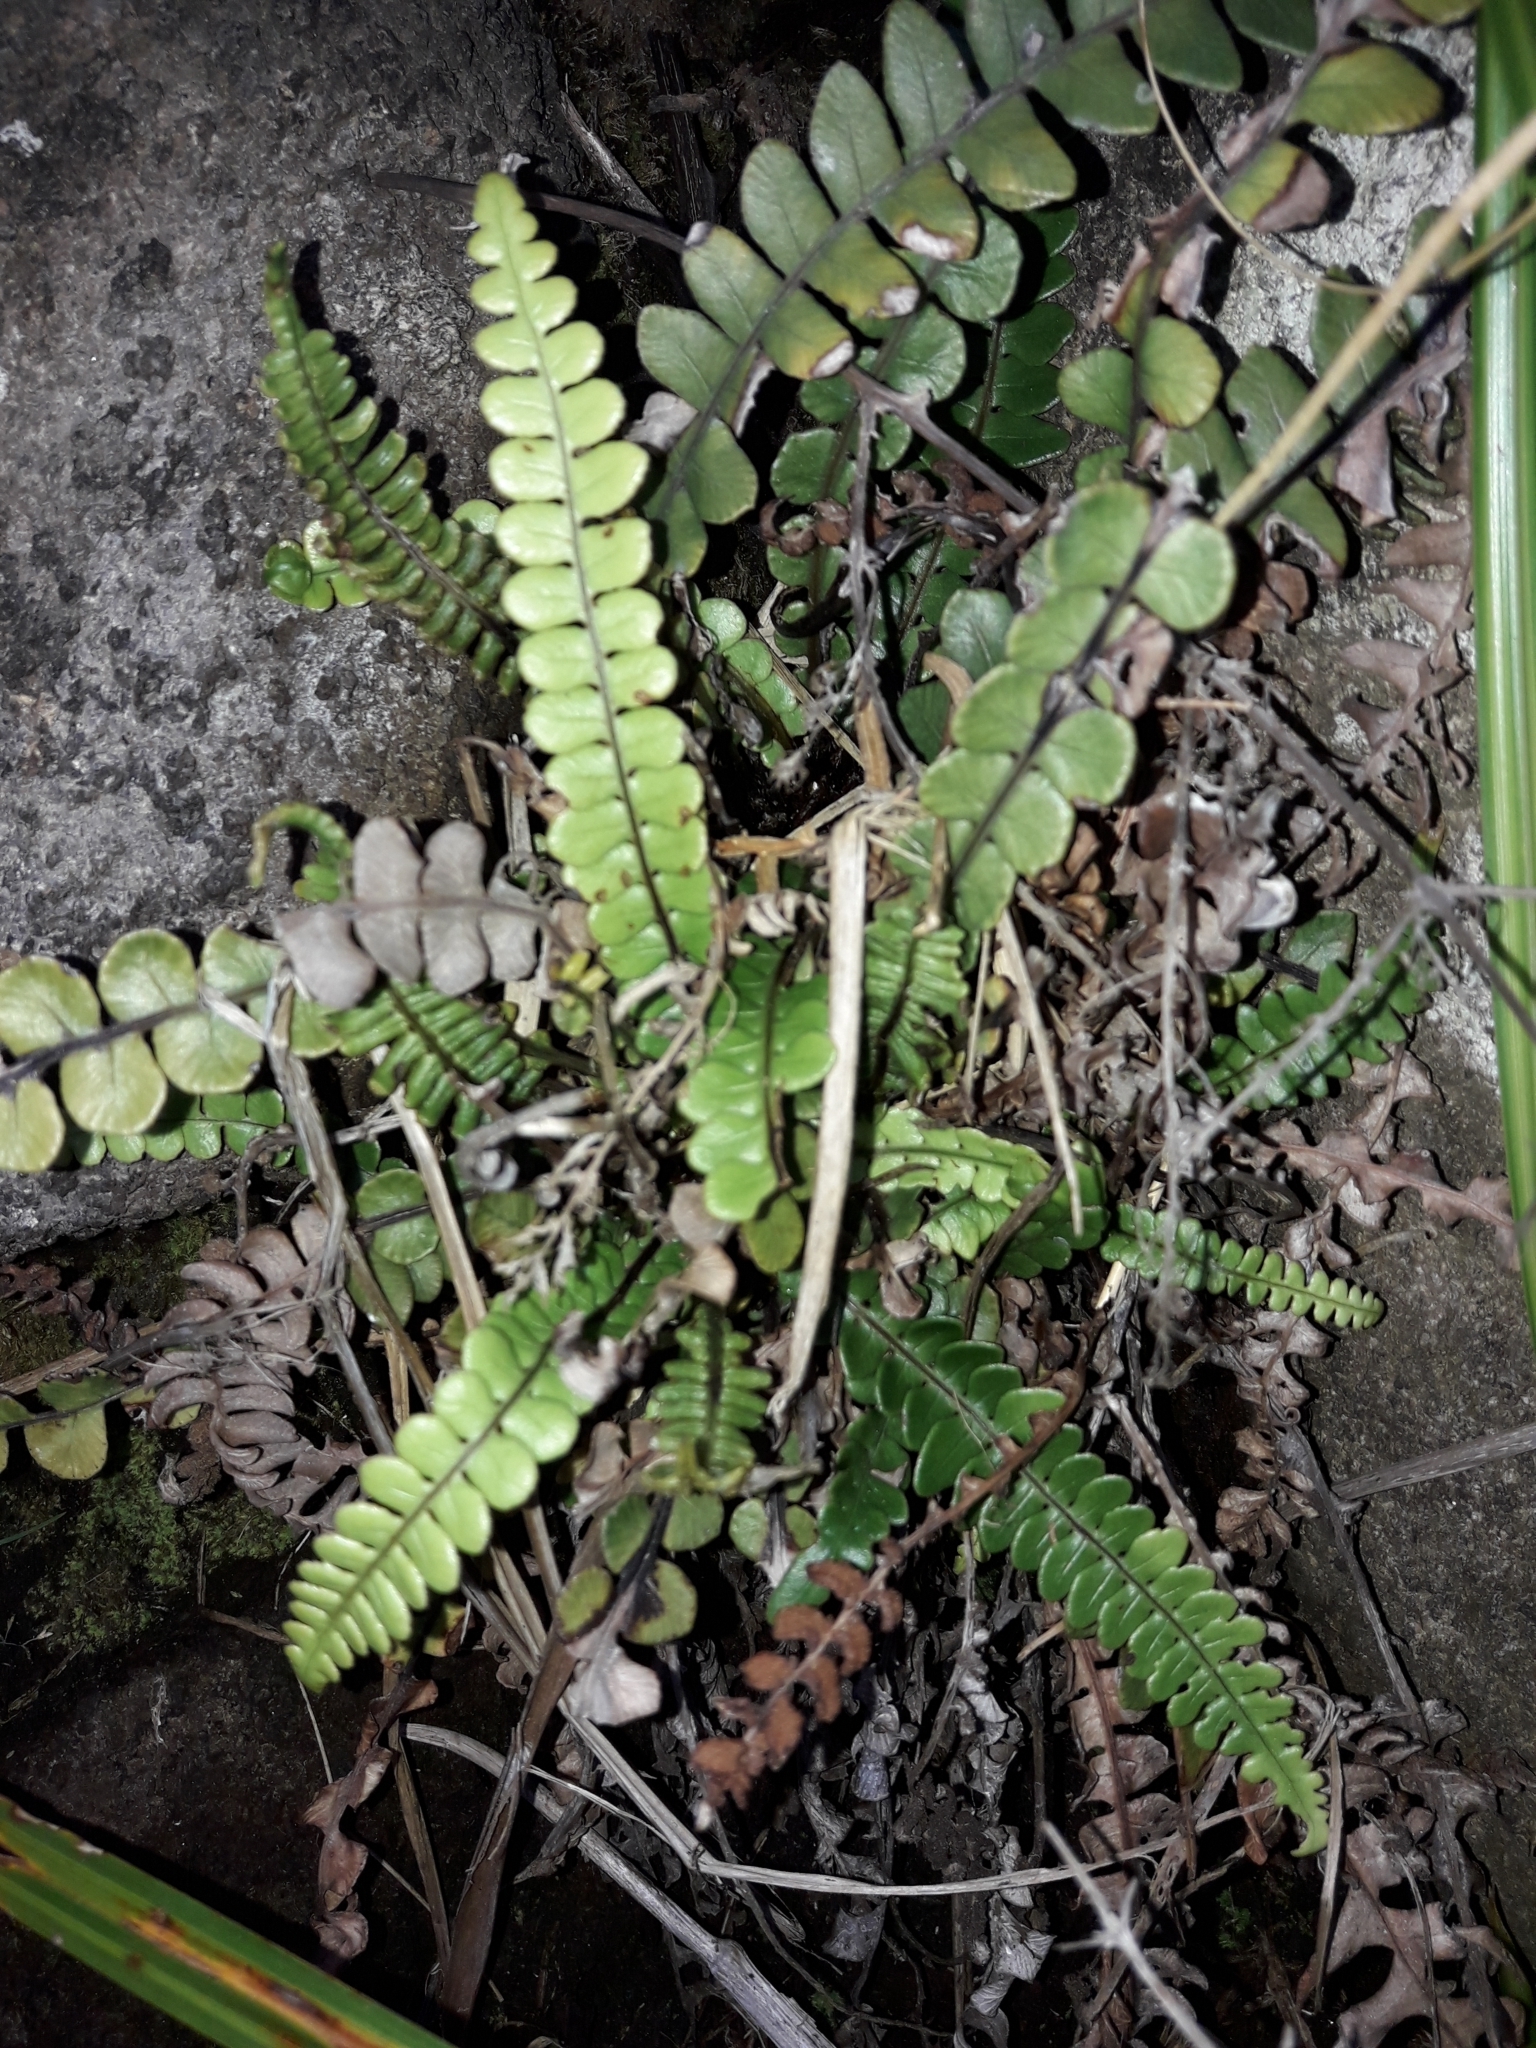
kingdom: Plantae
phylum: Tracheophyta
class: Polypodiopsida
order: Polypodiales
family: Blechnaceae
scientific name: Blechnaceae
